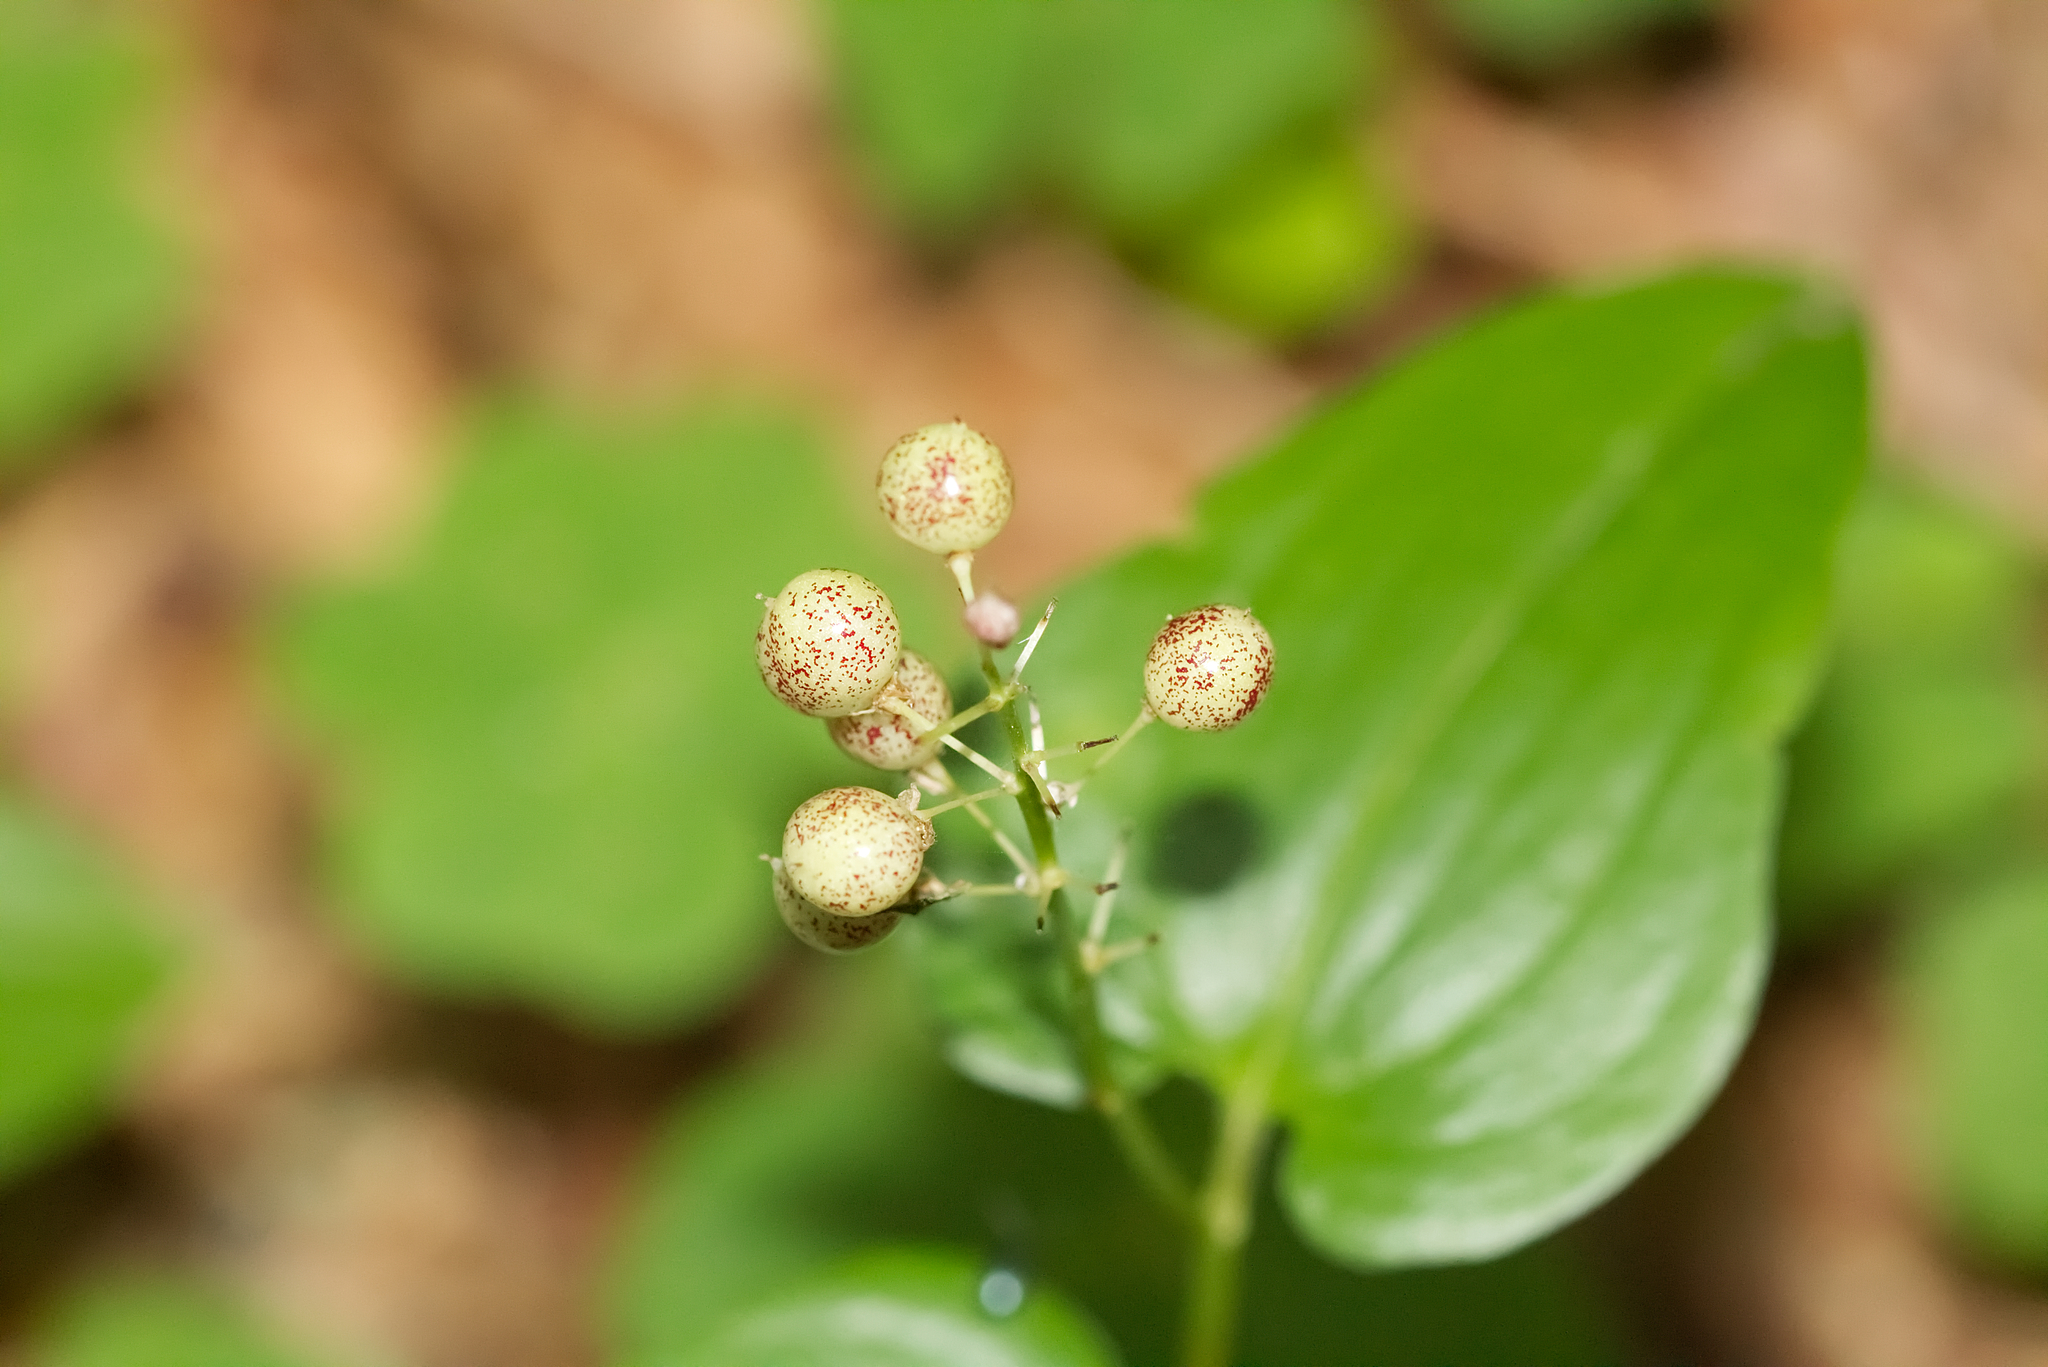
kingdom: Plantae
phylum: Tracheophyta
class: Liliopsida
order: Asparagales
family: Asparagaceae
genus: Maianthemum
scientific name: Maianthemum bifolium
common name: May lily
